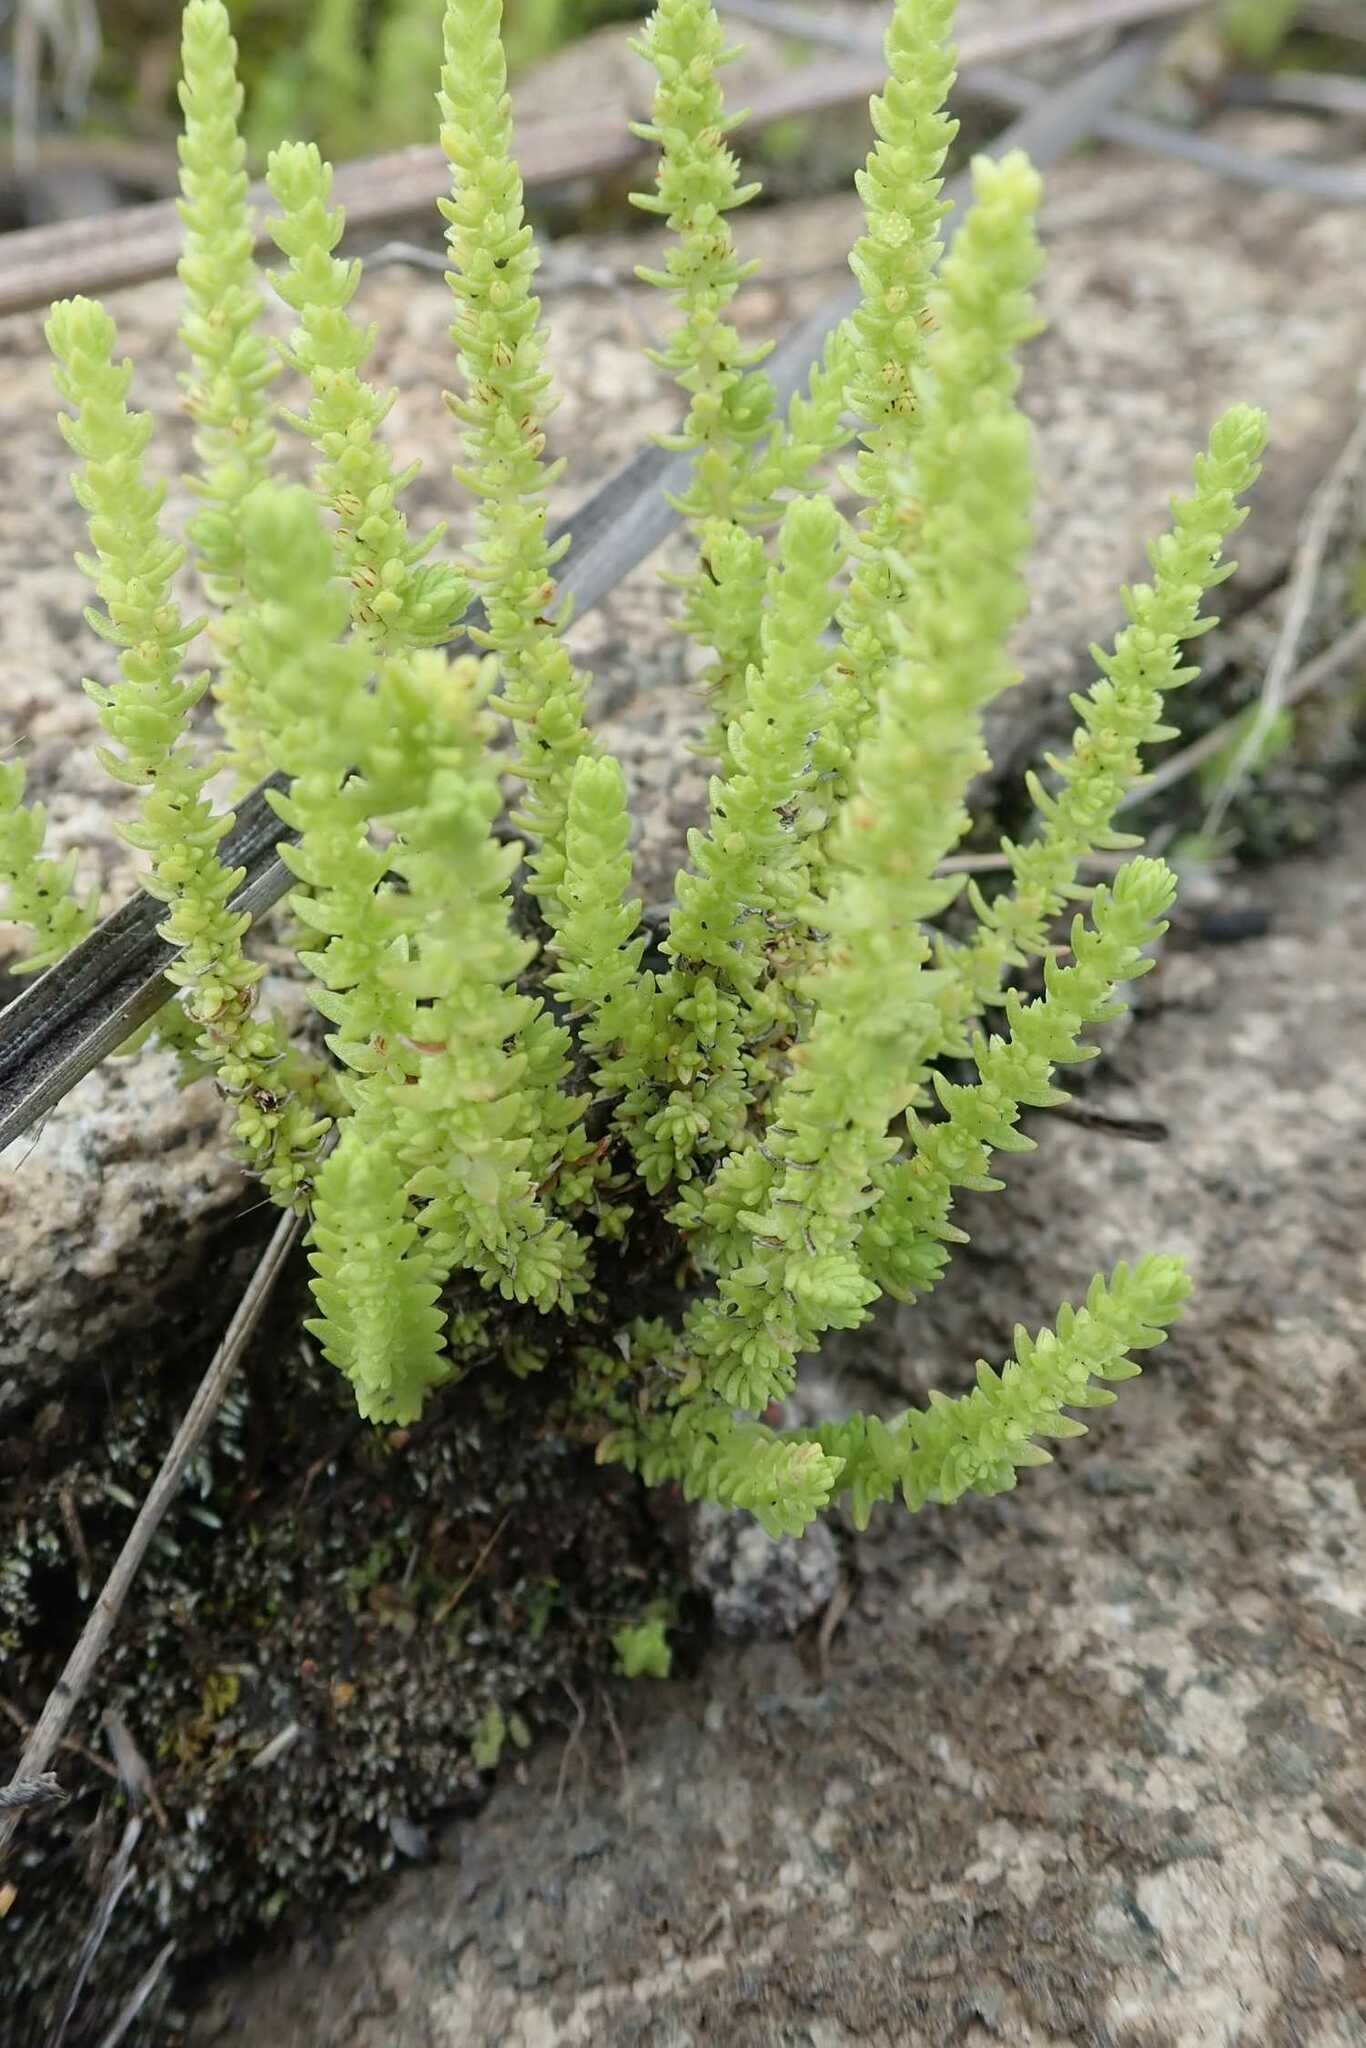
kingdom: Plantae
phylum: Tracheophyta
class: Magnoliopsida
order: Saxifragales
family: Crassulaceae
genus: Crassula
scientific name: Crassula lanceolata
